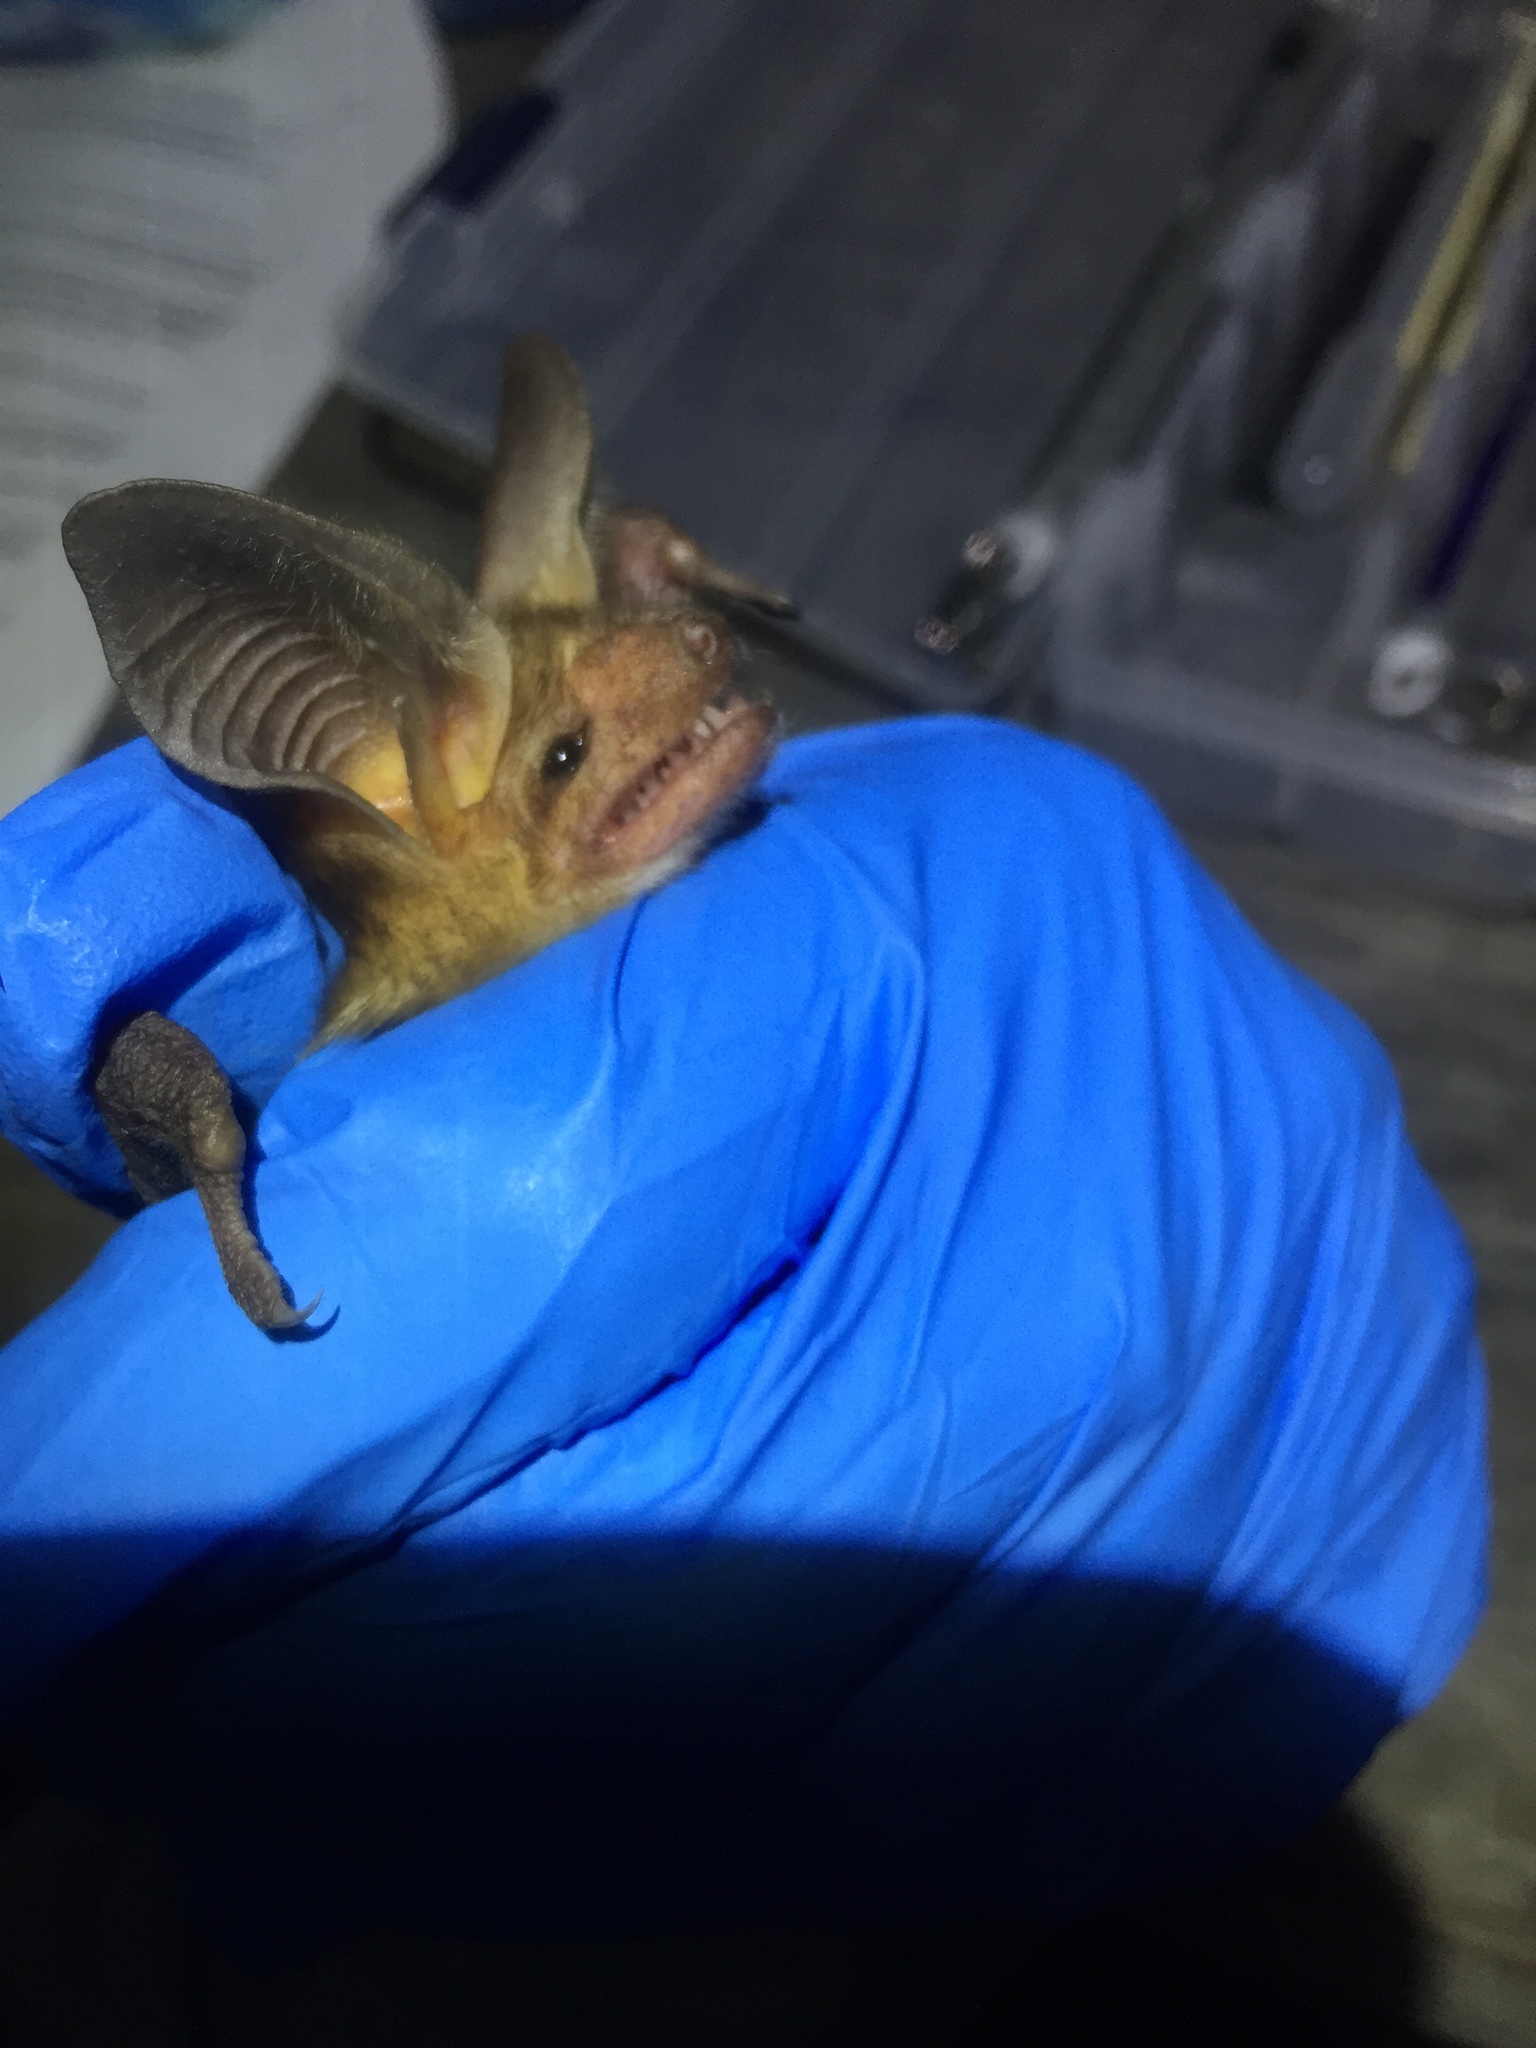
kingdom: Animalia
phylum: Chordata
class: Mammalia
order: Chiroptera
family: Vespertilionidae
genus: Antrozous
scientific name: Antrozous pallidus
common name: Pallid bat
